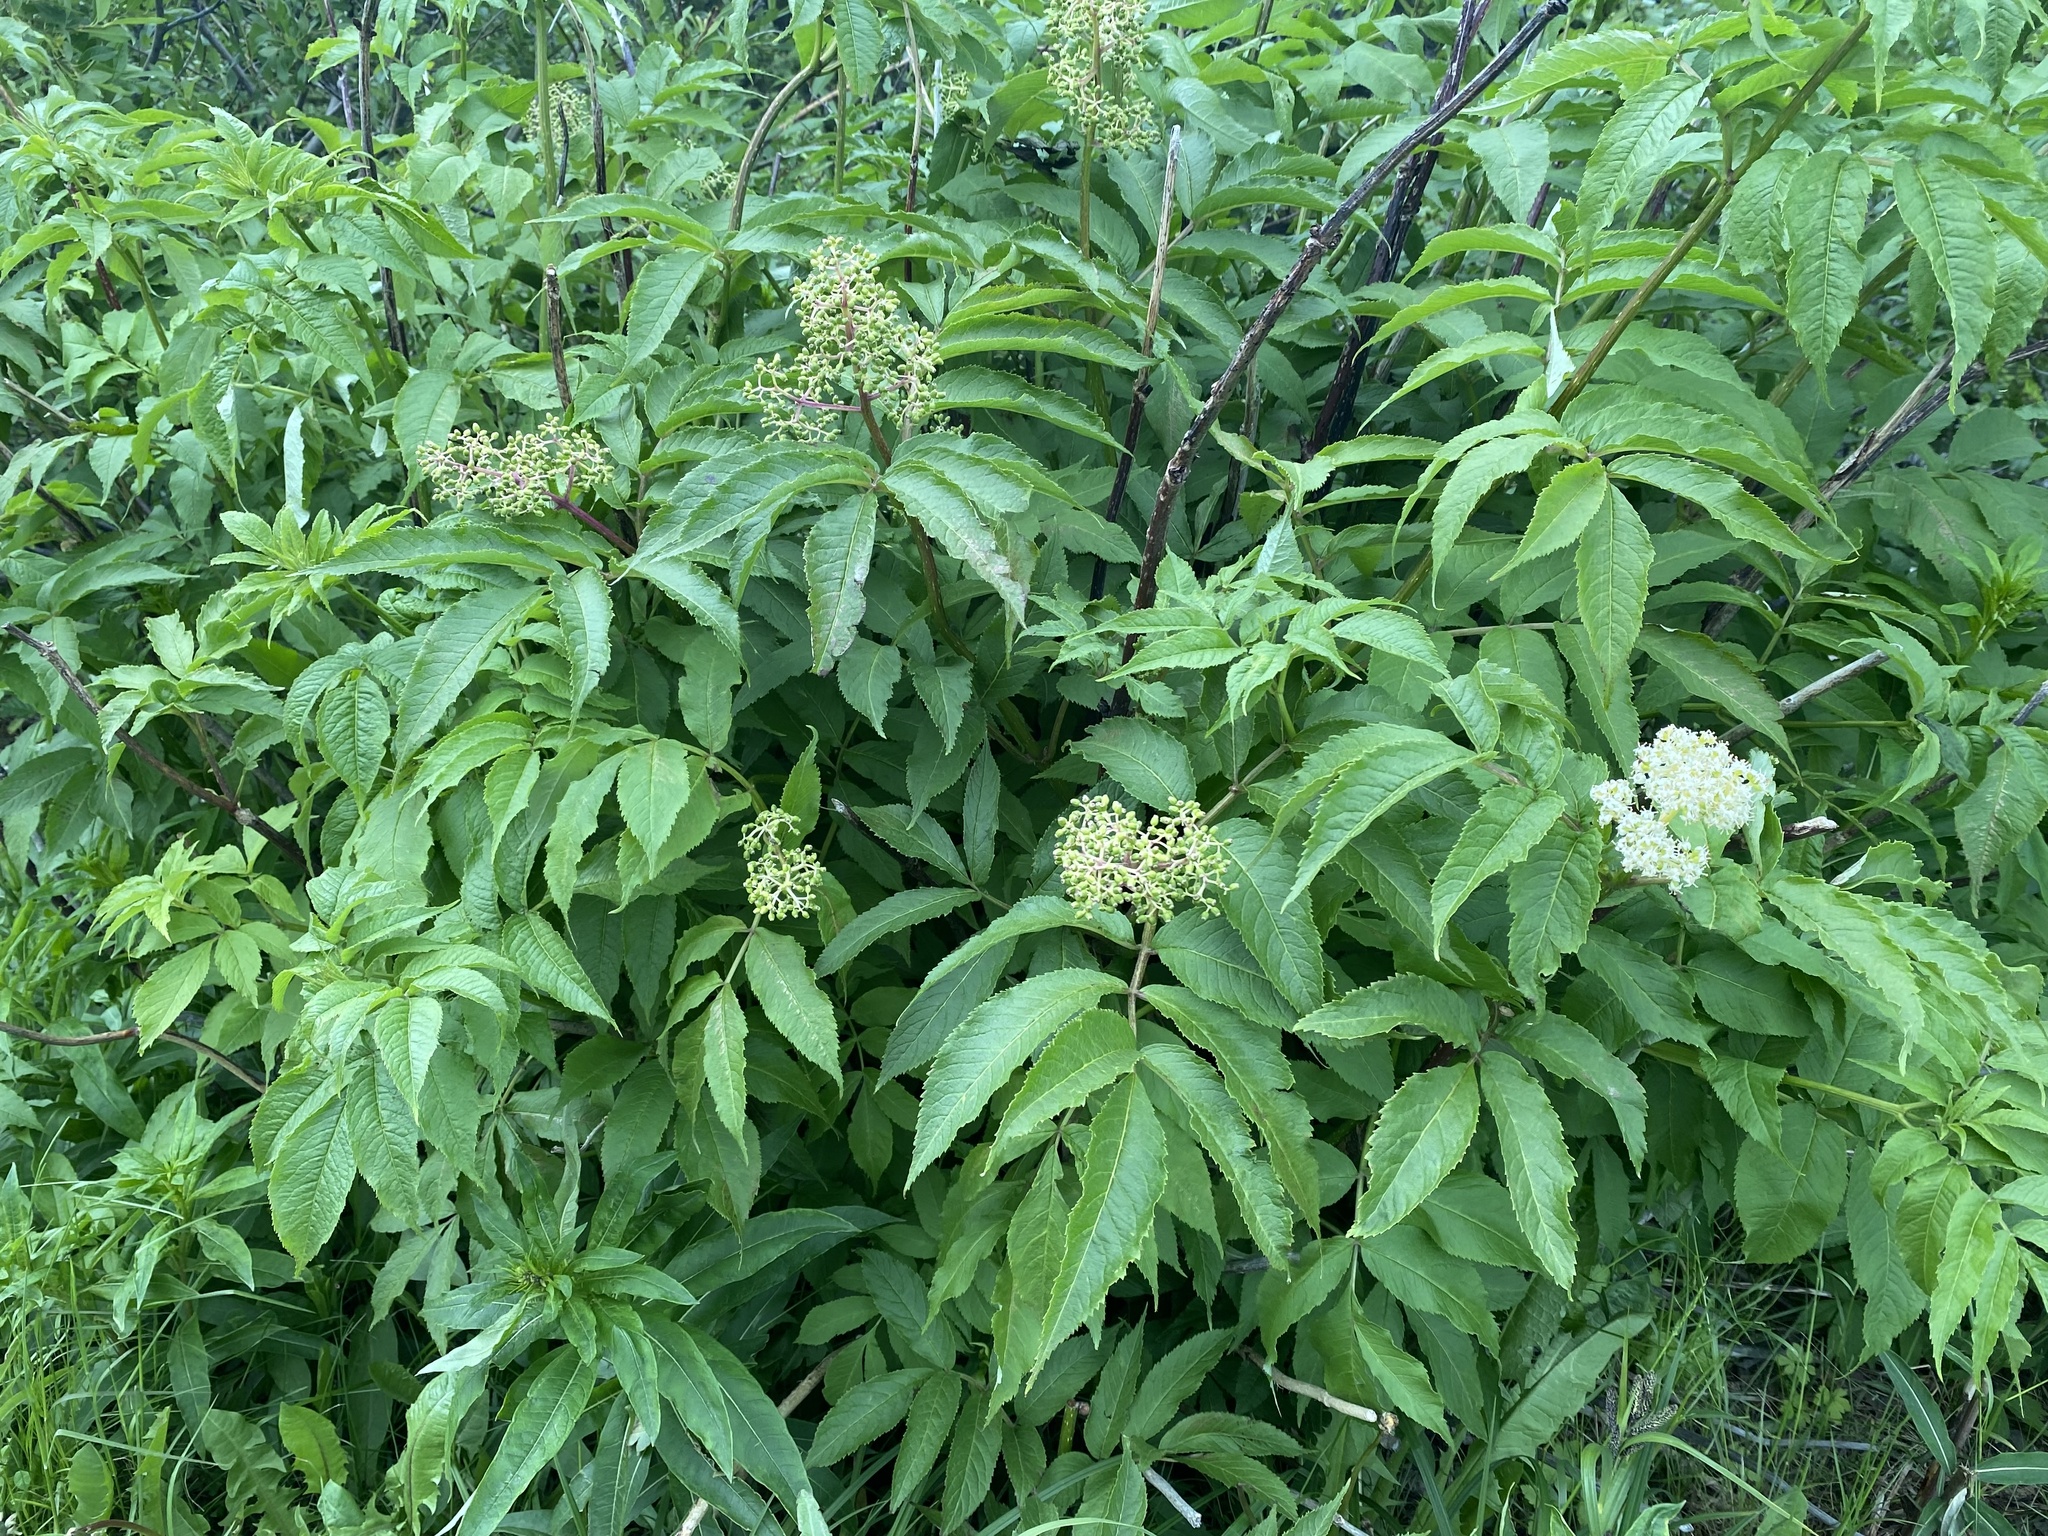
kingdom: Plantae
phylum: Tracheophyta
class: Magnoliopsida
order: Dipsacales
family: Viburnaceae
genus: Sambucus
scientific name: Sambucus racemosa
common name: Red-berried elder
